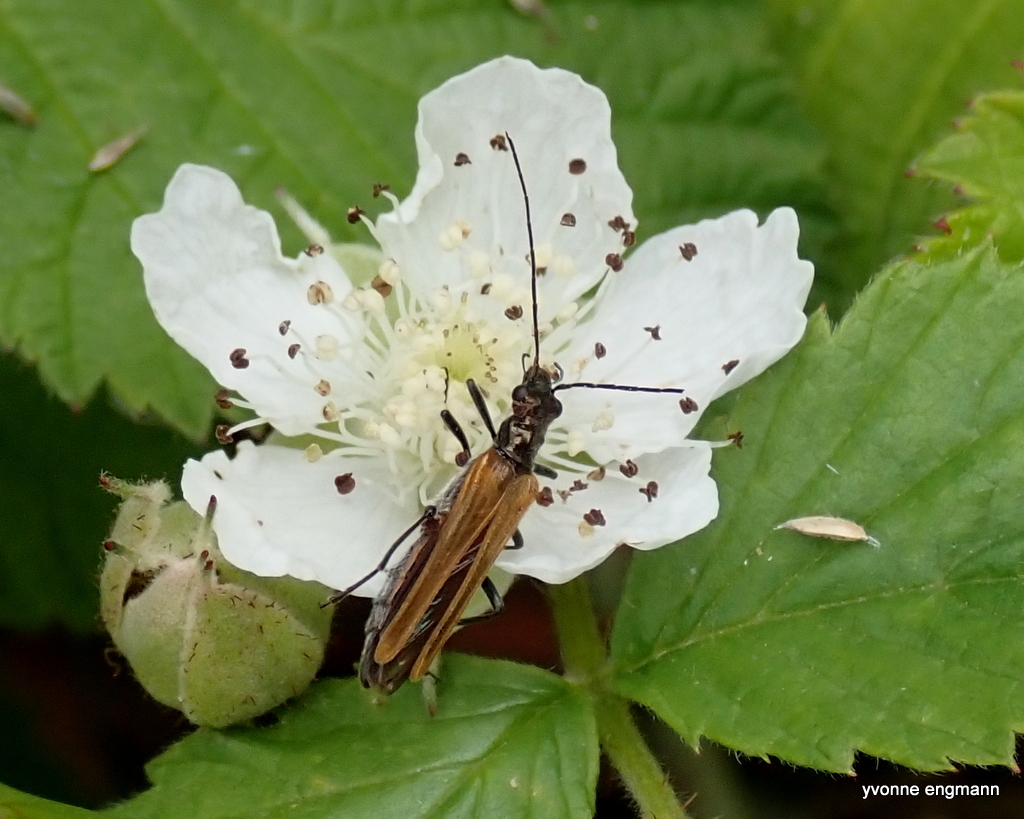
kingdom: Animalia
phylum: Arthropoda
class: Insecta
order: Coleoptera
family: Oedemeridae
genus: Oedemera
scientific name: Oedemera femorata
